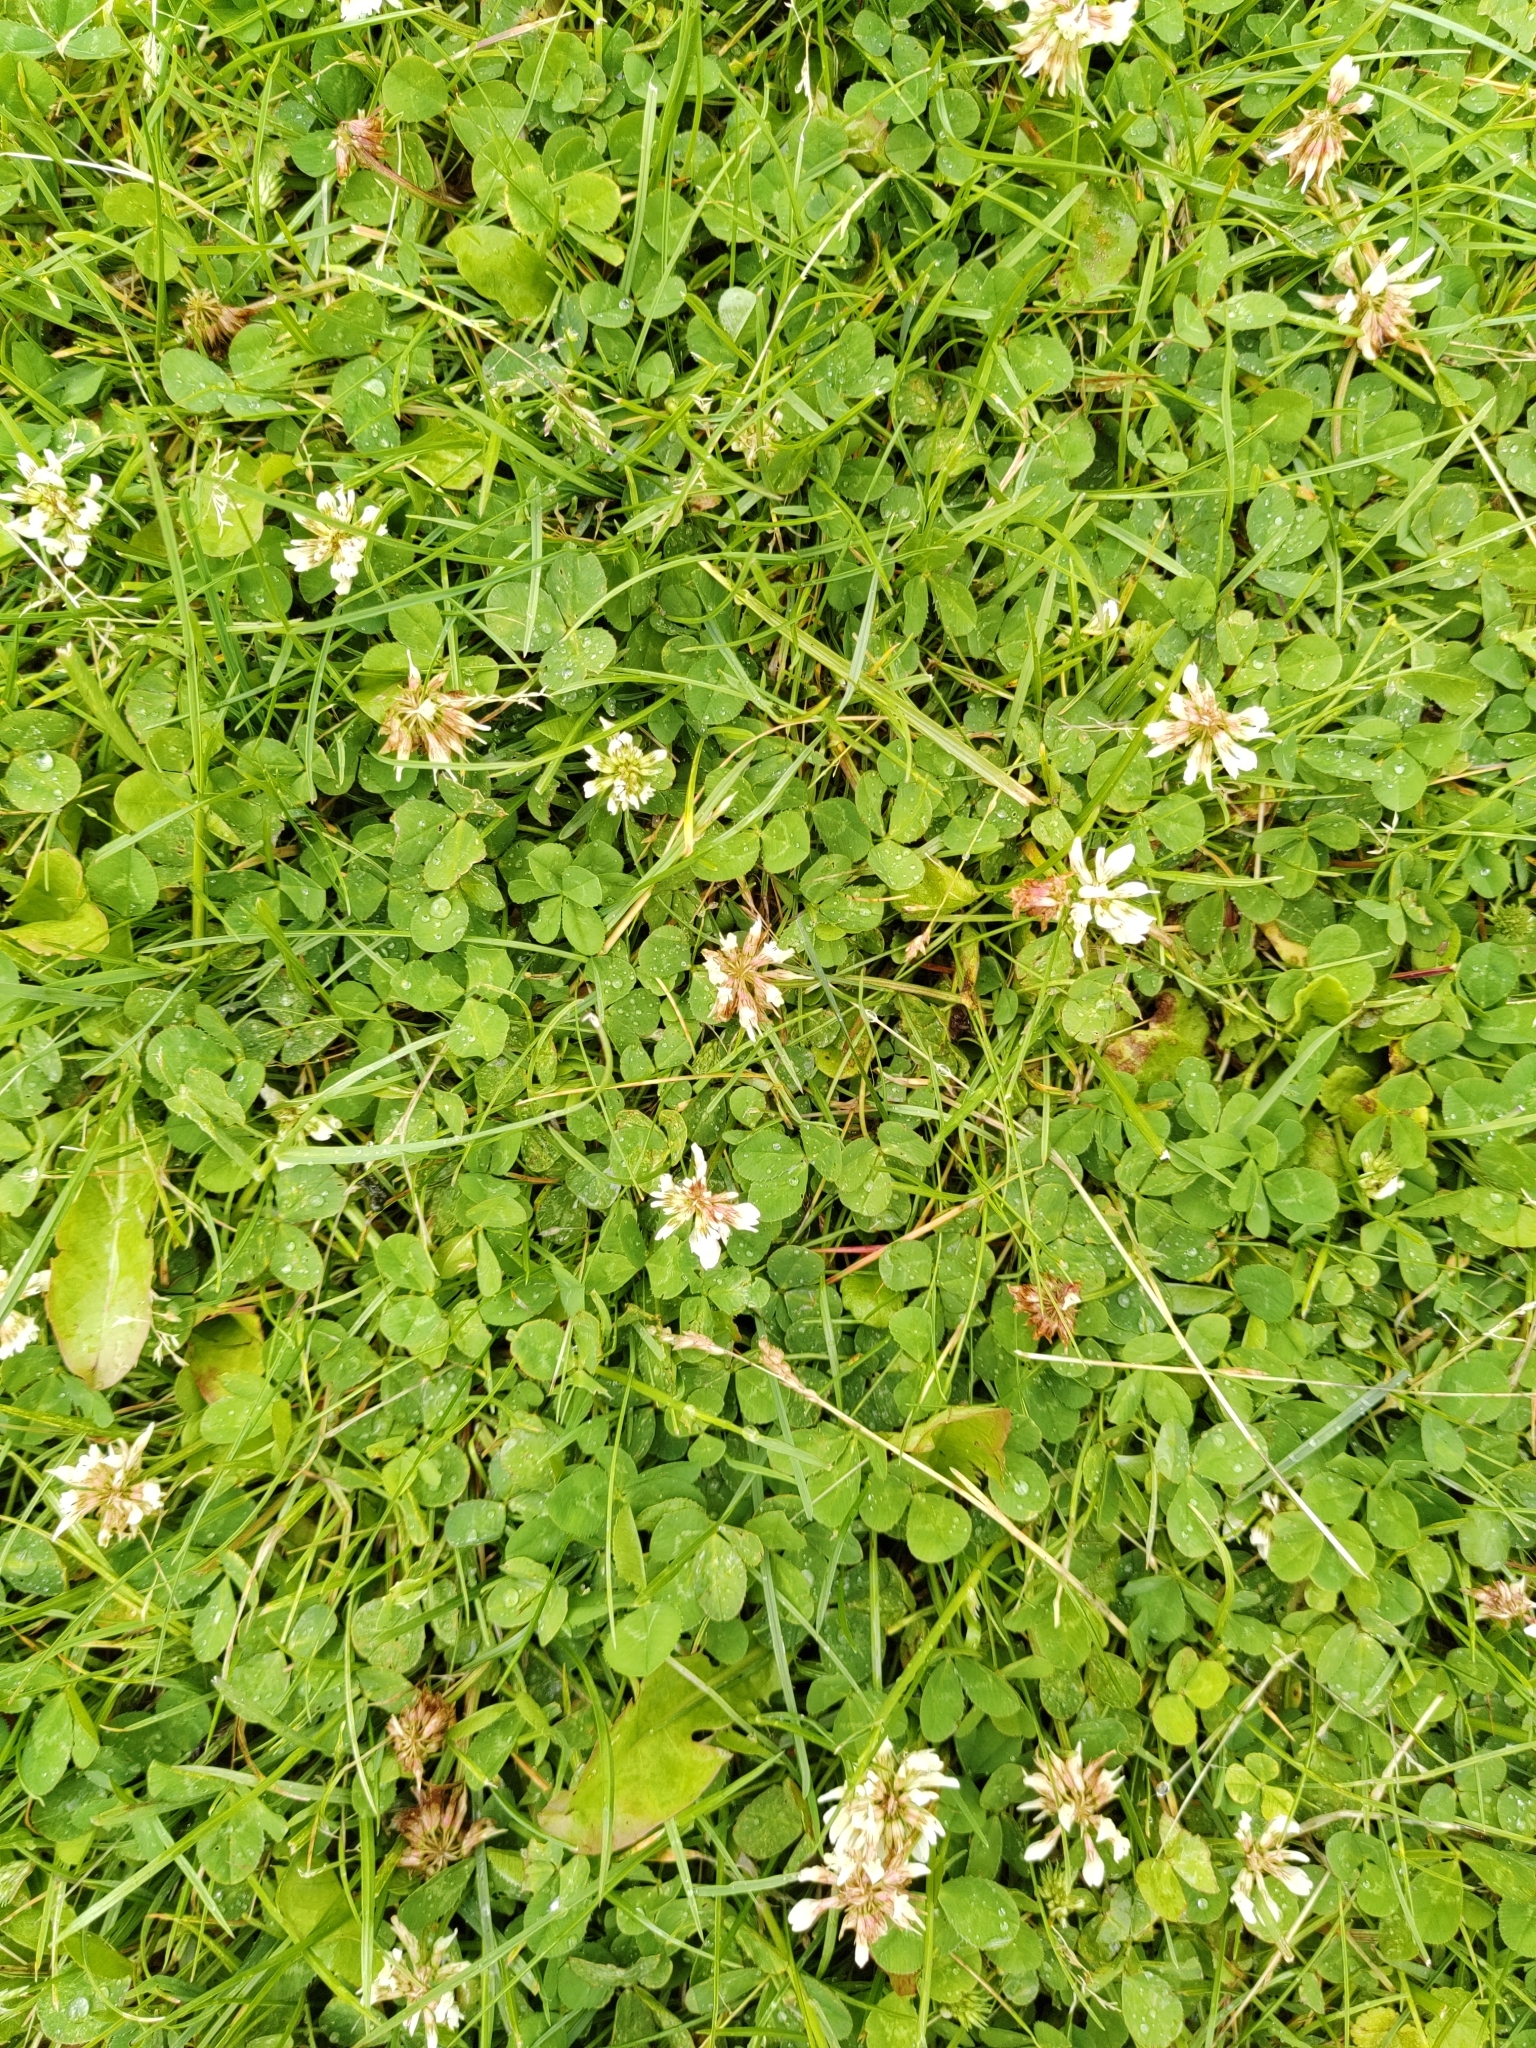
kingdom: Plantae
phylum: Tracheophyta
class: Magnoliopsida
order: Fabales
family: Fabaceae
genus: Trifolium
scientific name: Trifolium repens
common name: White clover
